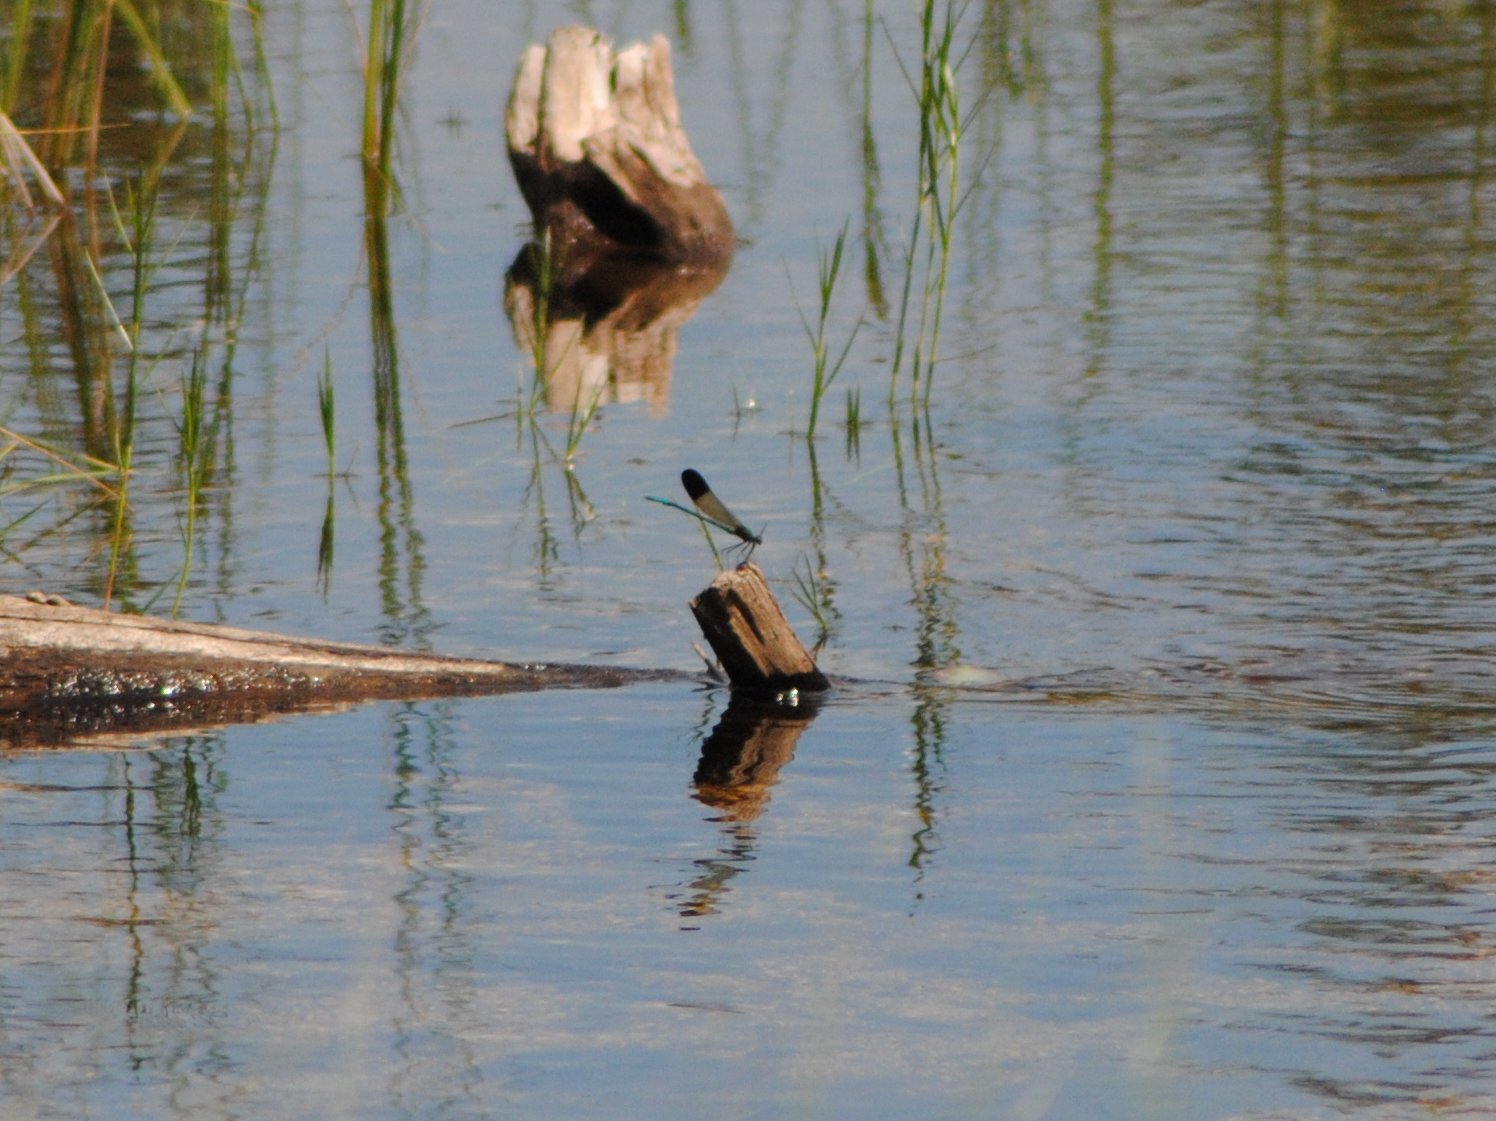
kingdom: Animalia
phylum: Arthropoda
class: Insecta
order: Odonata
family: Calopterygidae
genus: Calopteryx
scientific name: Calopteryx aequabilis
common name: River jewelwing
